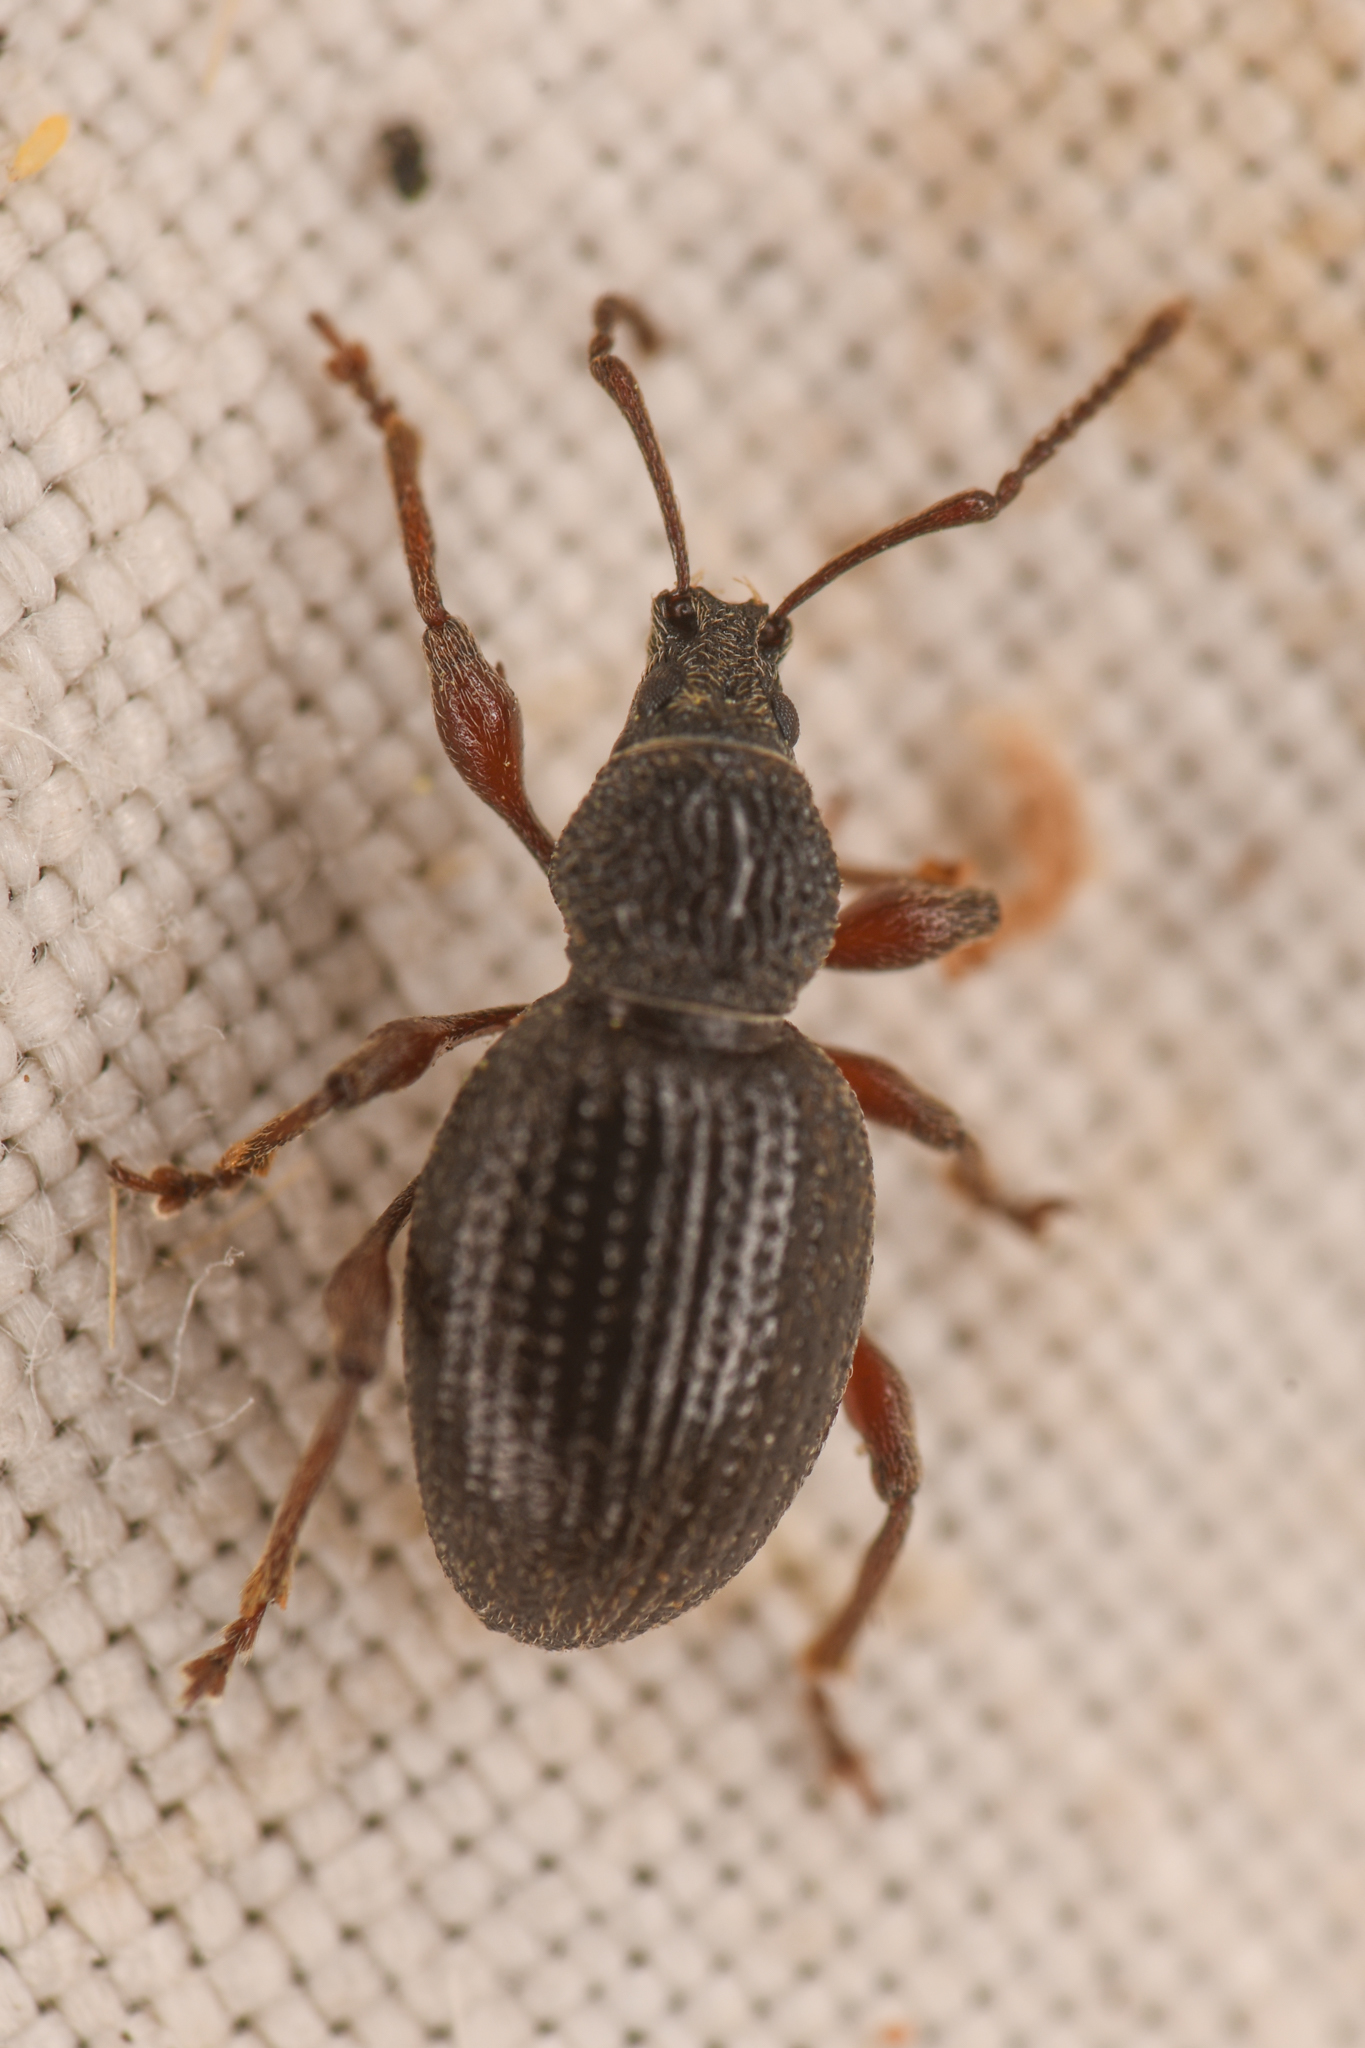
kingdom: Animalia
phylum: Arthropoda
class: Insecta
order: Coleoptera
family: Curculionidae
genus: Otiorhynchus
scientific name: Otiorhynchus ovatus
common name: Strawberry root weevil
